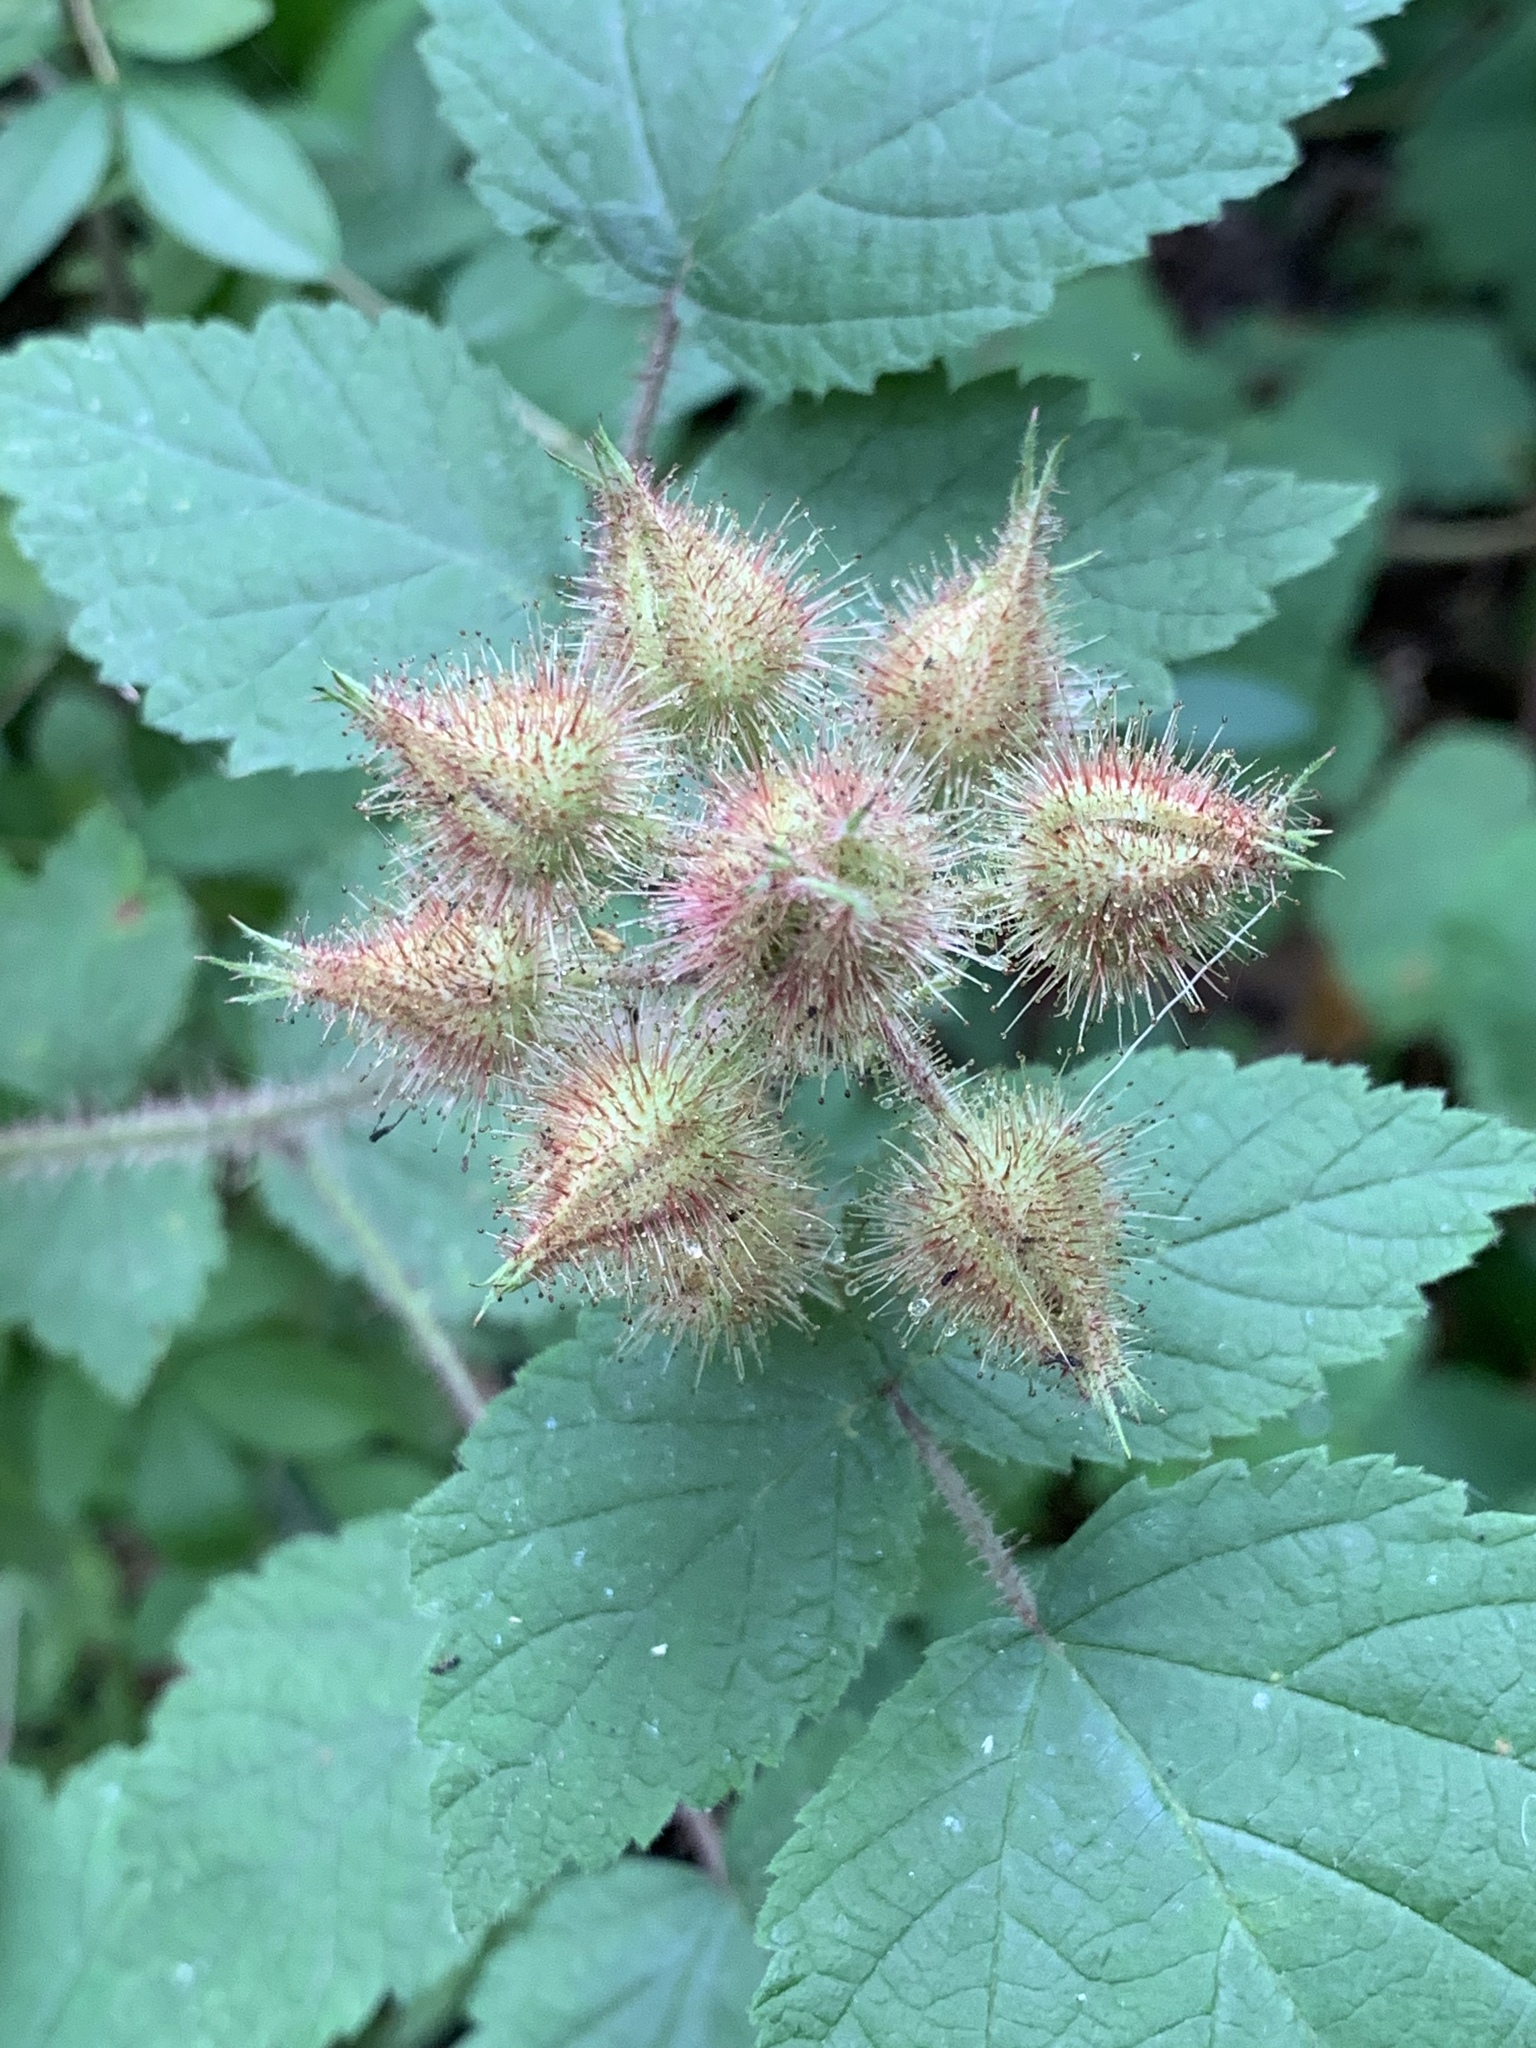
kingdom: Plantae
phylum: Tracheophyta
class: Magnoliopsida
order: Rosales
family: Rosaceae
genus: Rubus
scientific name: Rubus phoenicolasius
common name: Japanese wineberry
